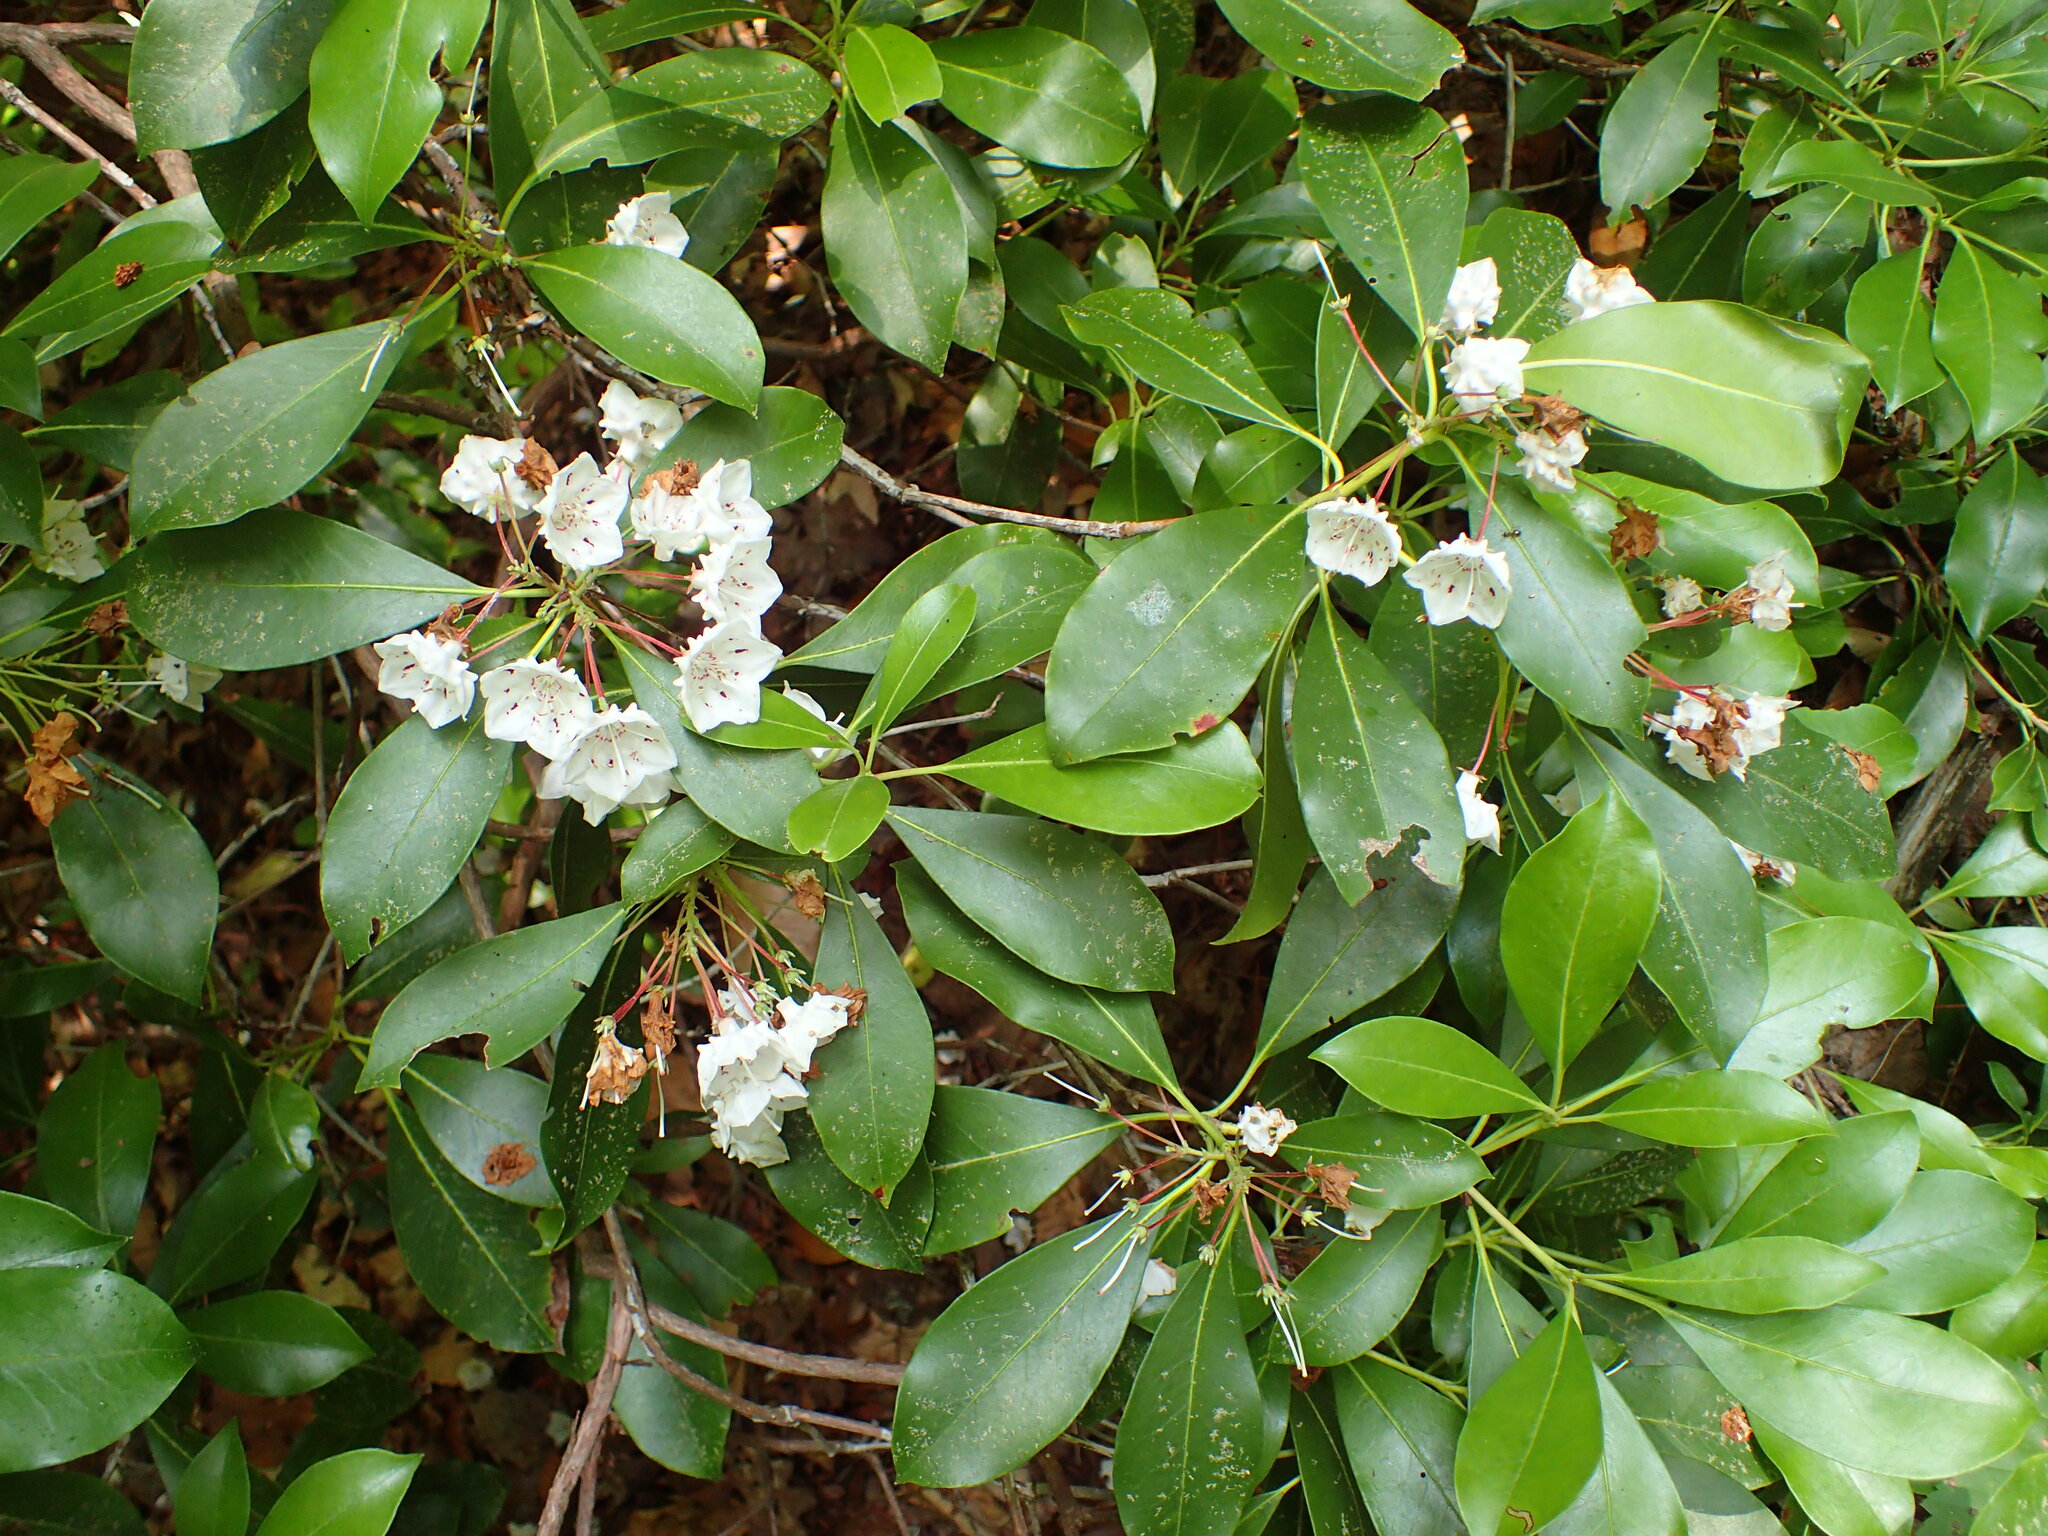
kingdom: Plantae
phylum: Tracheophyta
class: Magnoliopsida
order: Ericales
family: Ericaceae
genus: Kalmia
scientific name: Kalmia latifolia
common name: Mountain-laurel
